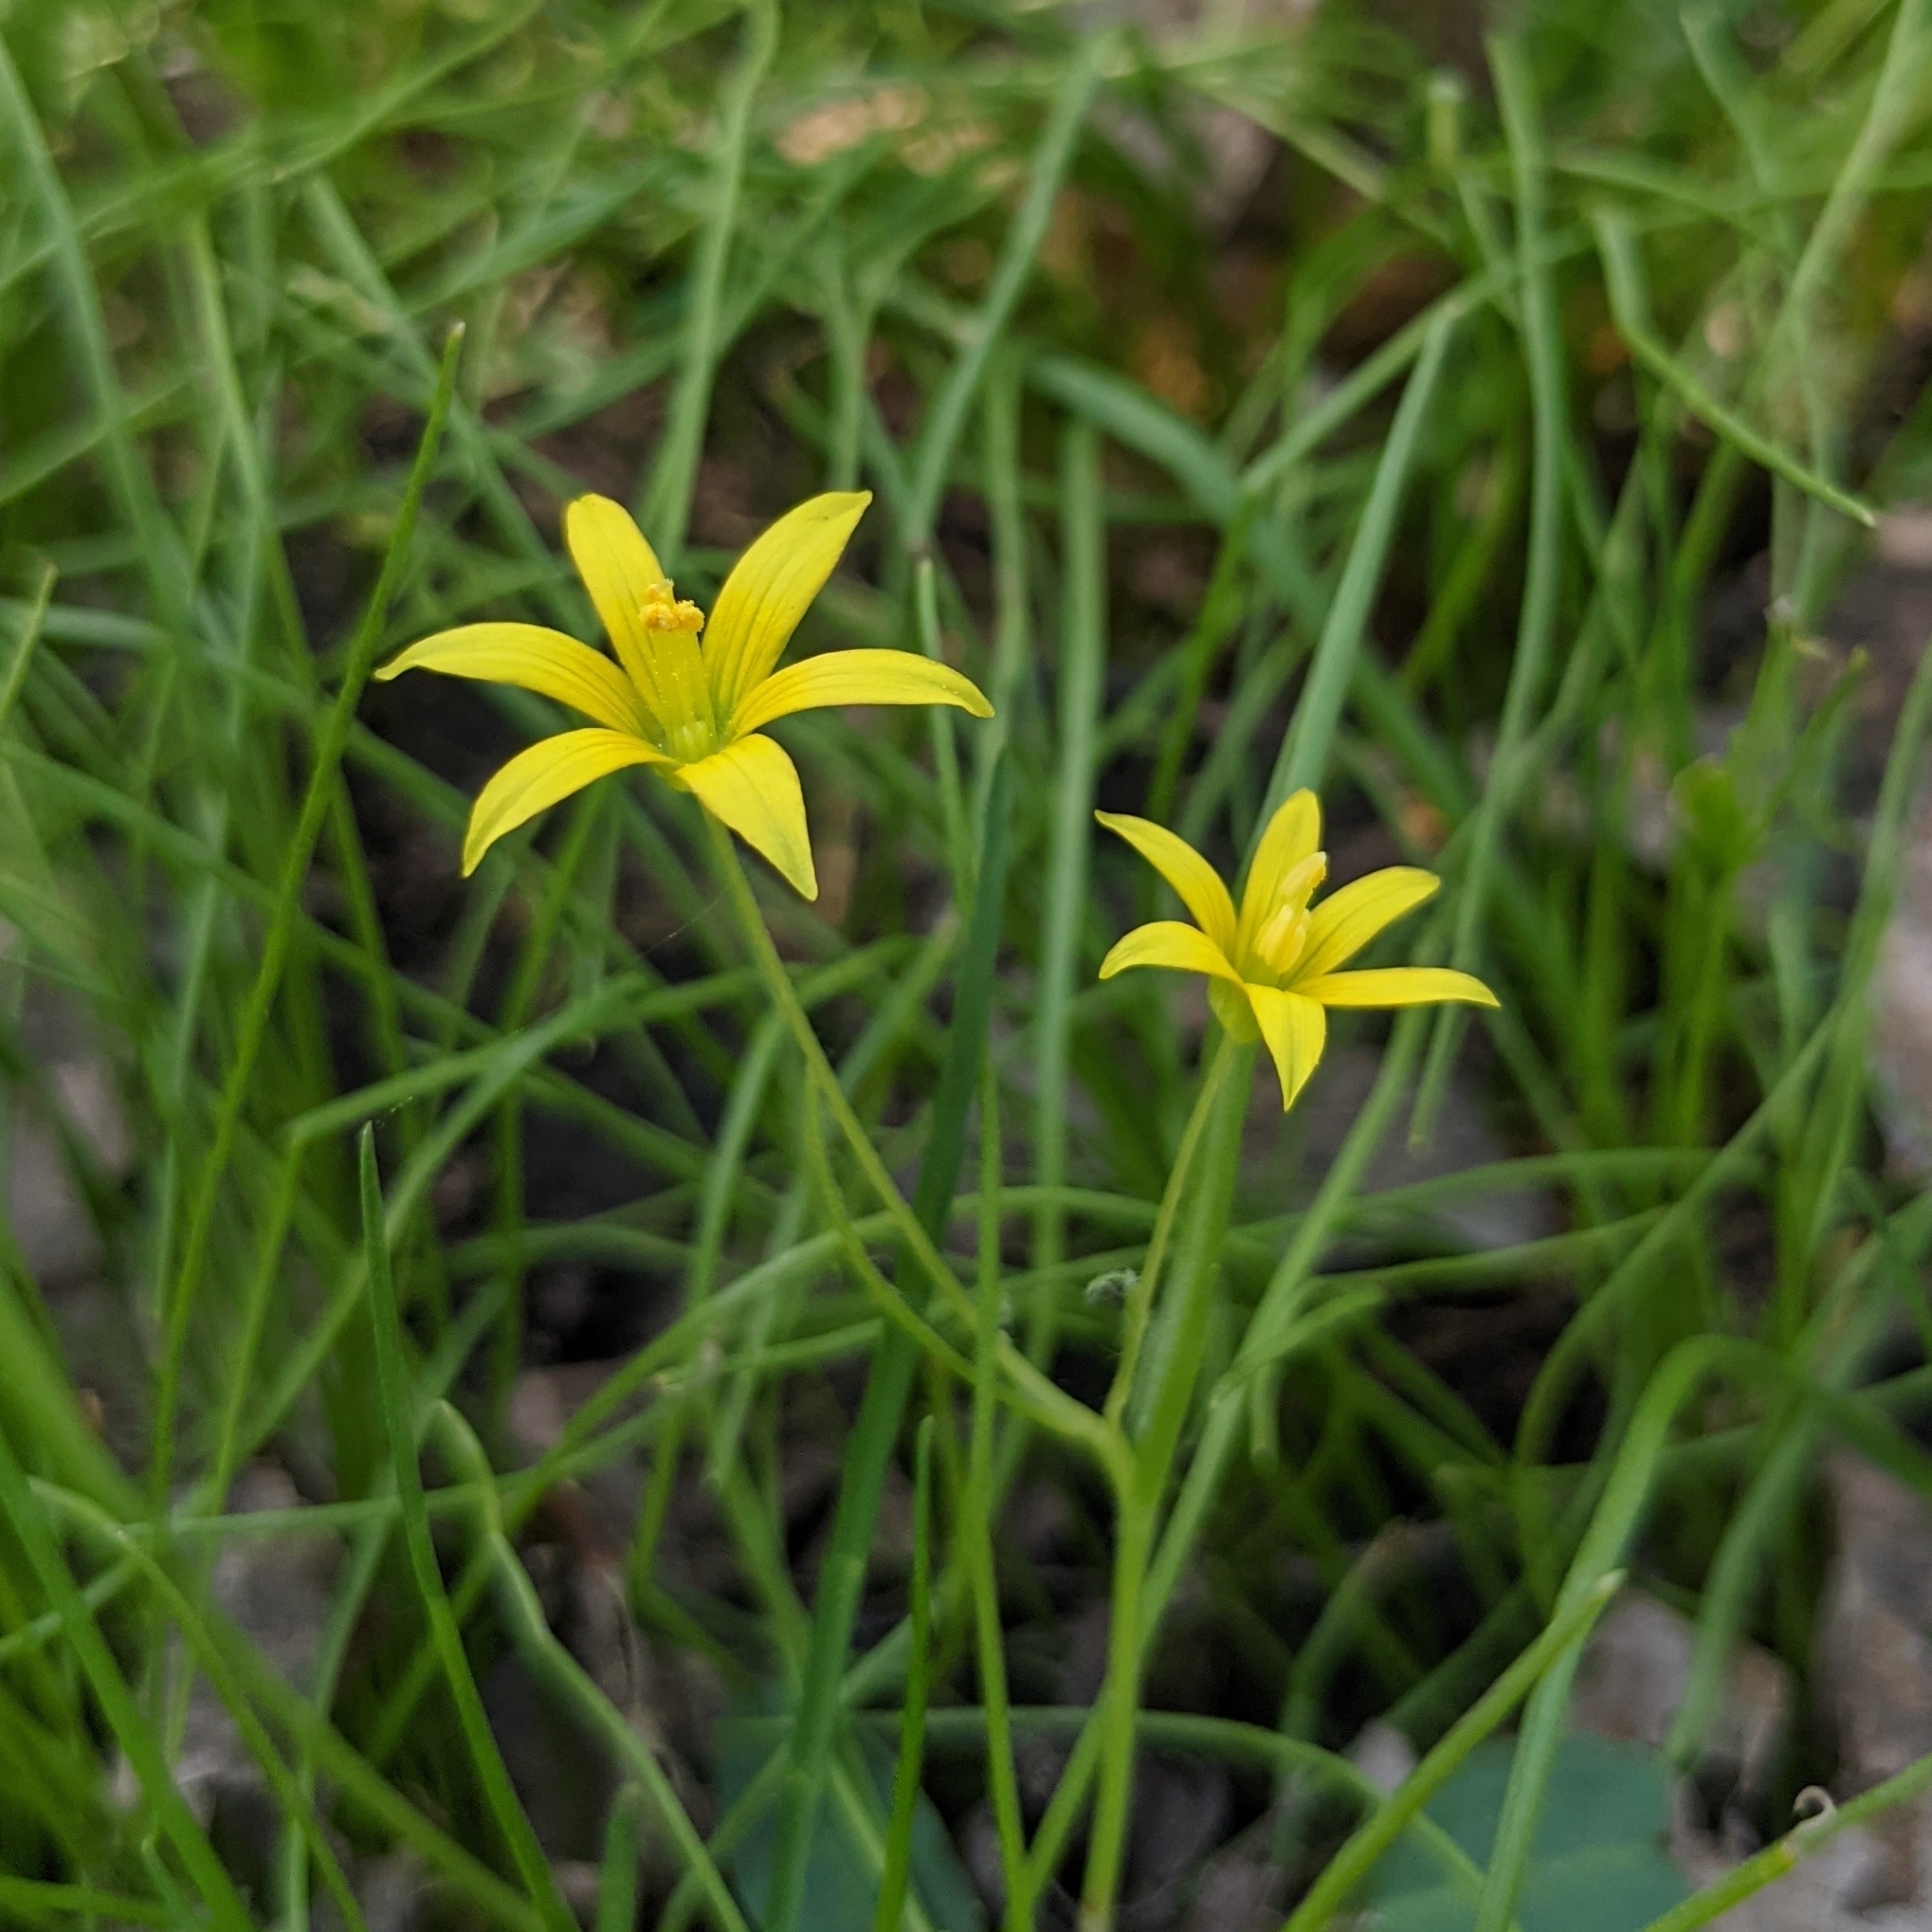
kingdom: Plantae
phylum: Tracheophyta
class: Liliopsida
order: Liliales
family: Liliaceae
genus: Gagea
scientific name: Gagea minima
